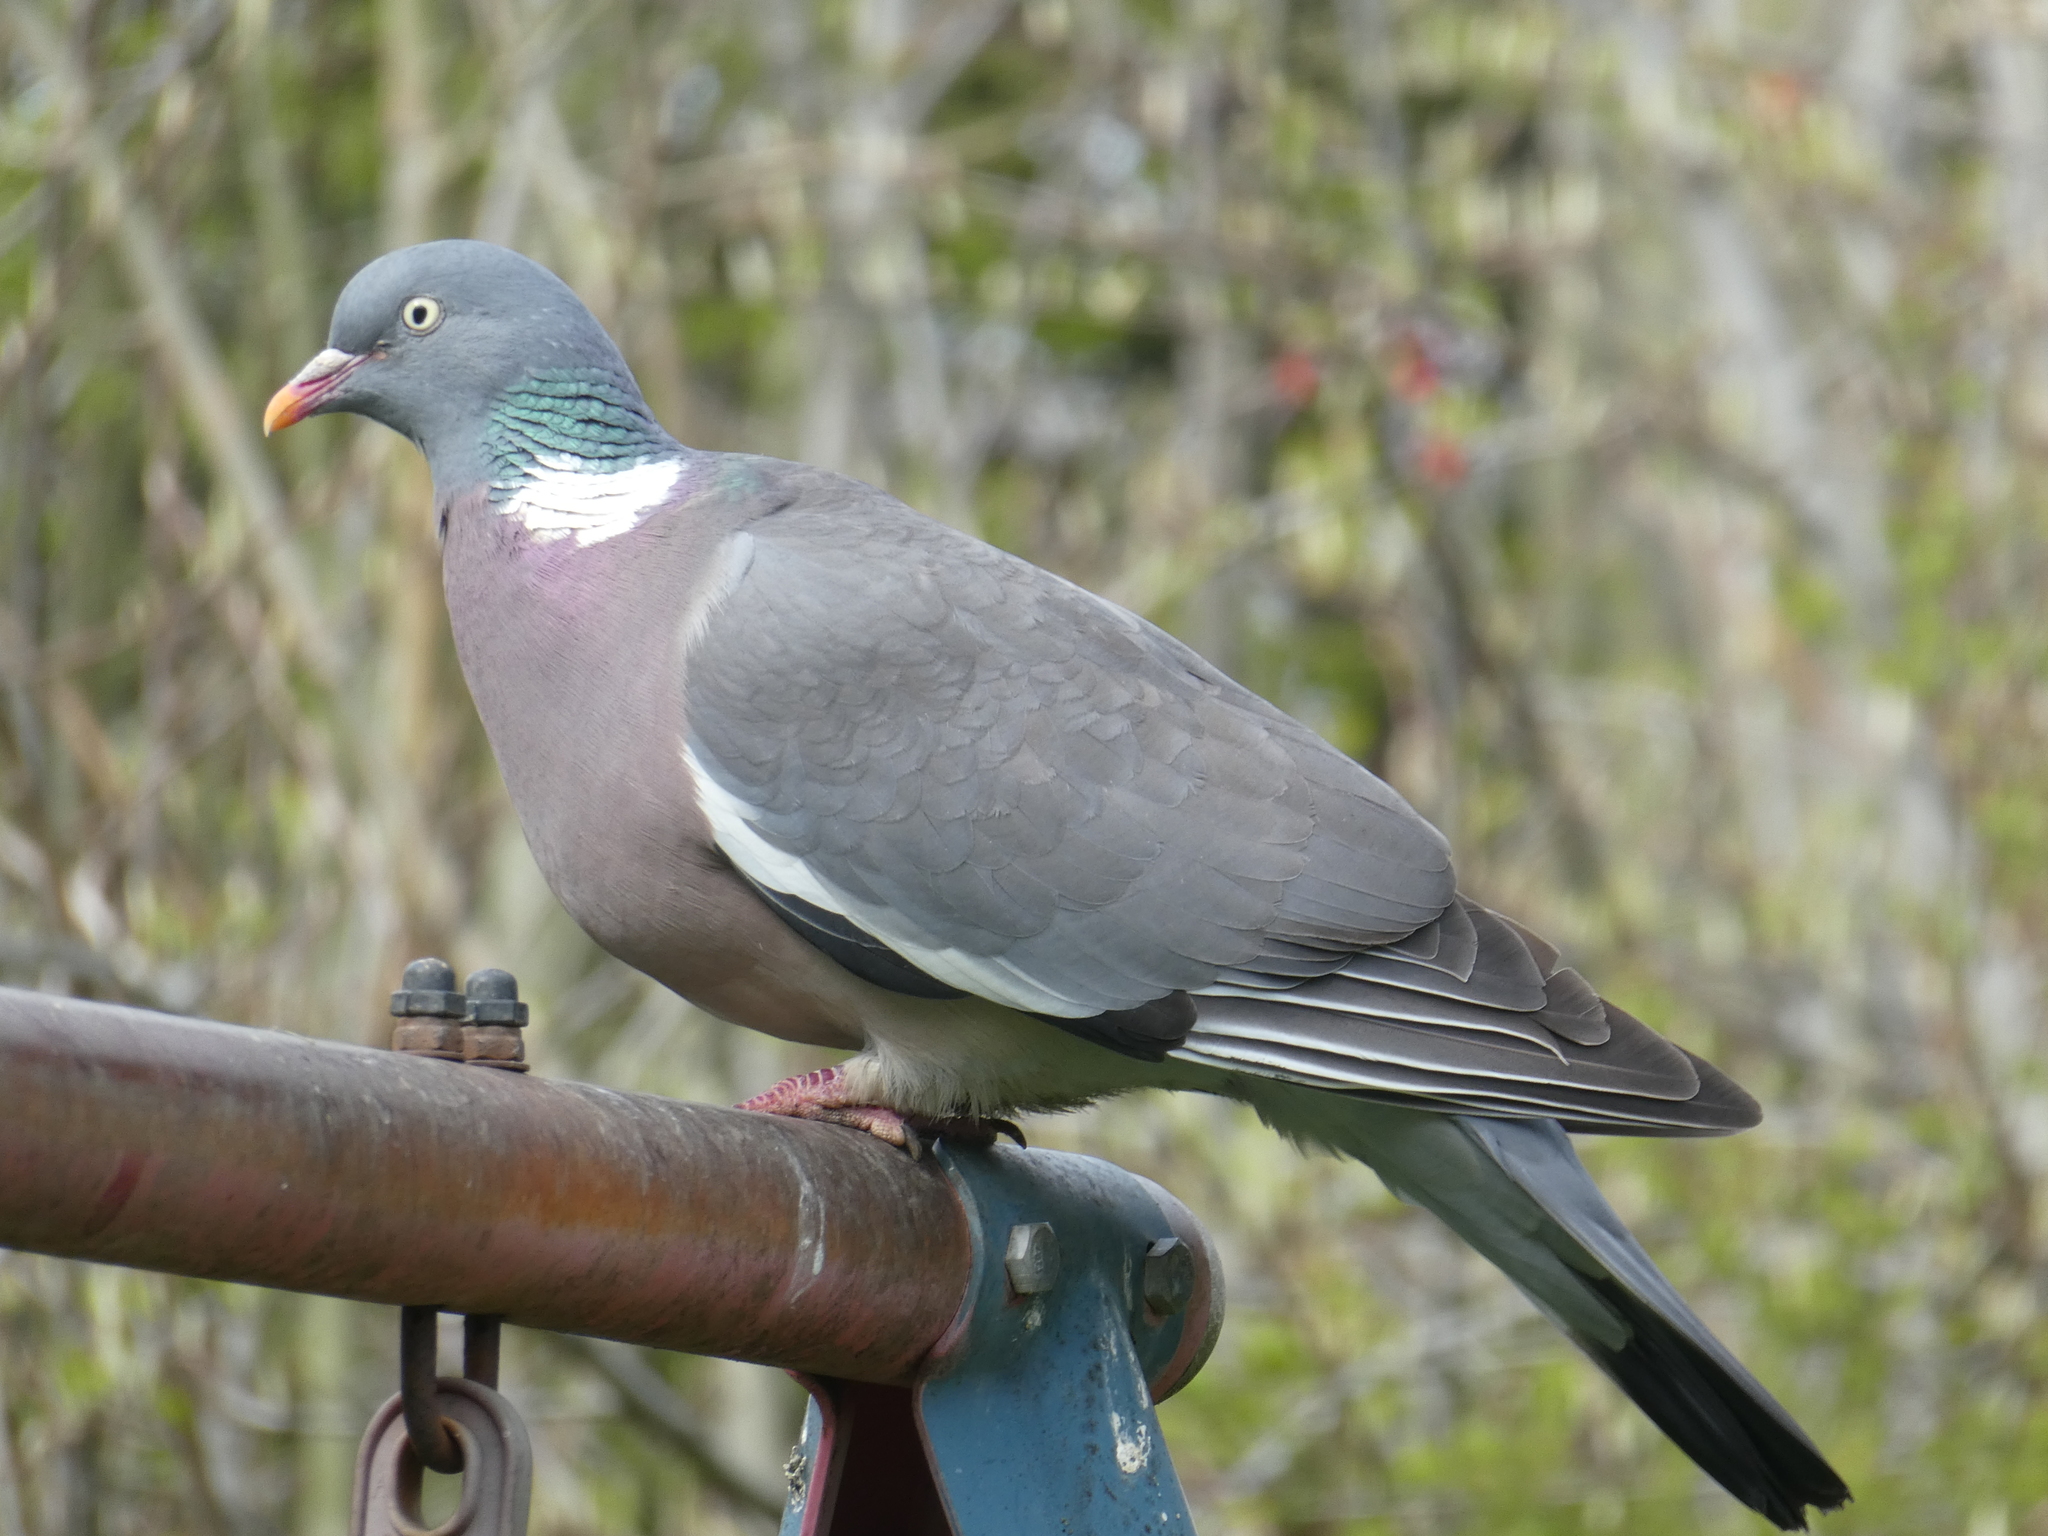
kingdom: Animalia
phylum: Chordata
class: Aves
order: Columbiformes
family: Columbidae
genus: Columba
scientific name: Columba palumbus
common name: Common wood pigeon
